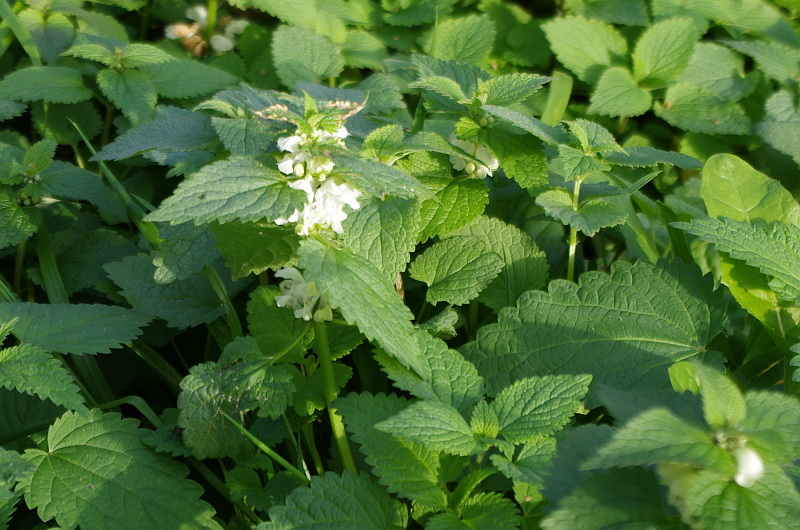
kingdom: Plantae
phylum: Tracheophyta
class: Magnoliopsida
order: Lamiales
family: Lamiaceae
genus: Lamium
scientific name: Lamium album
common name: White dead-nettle
